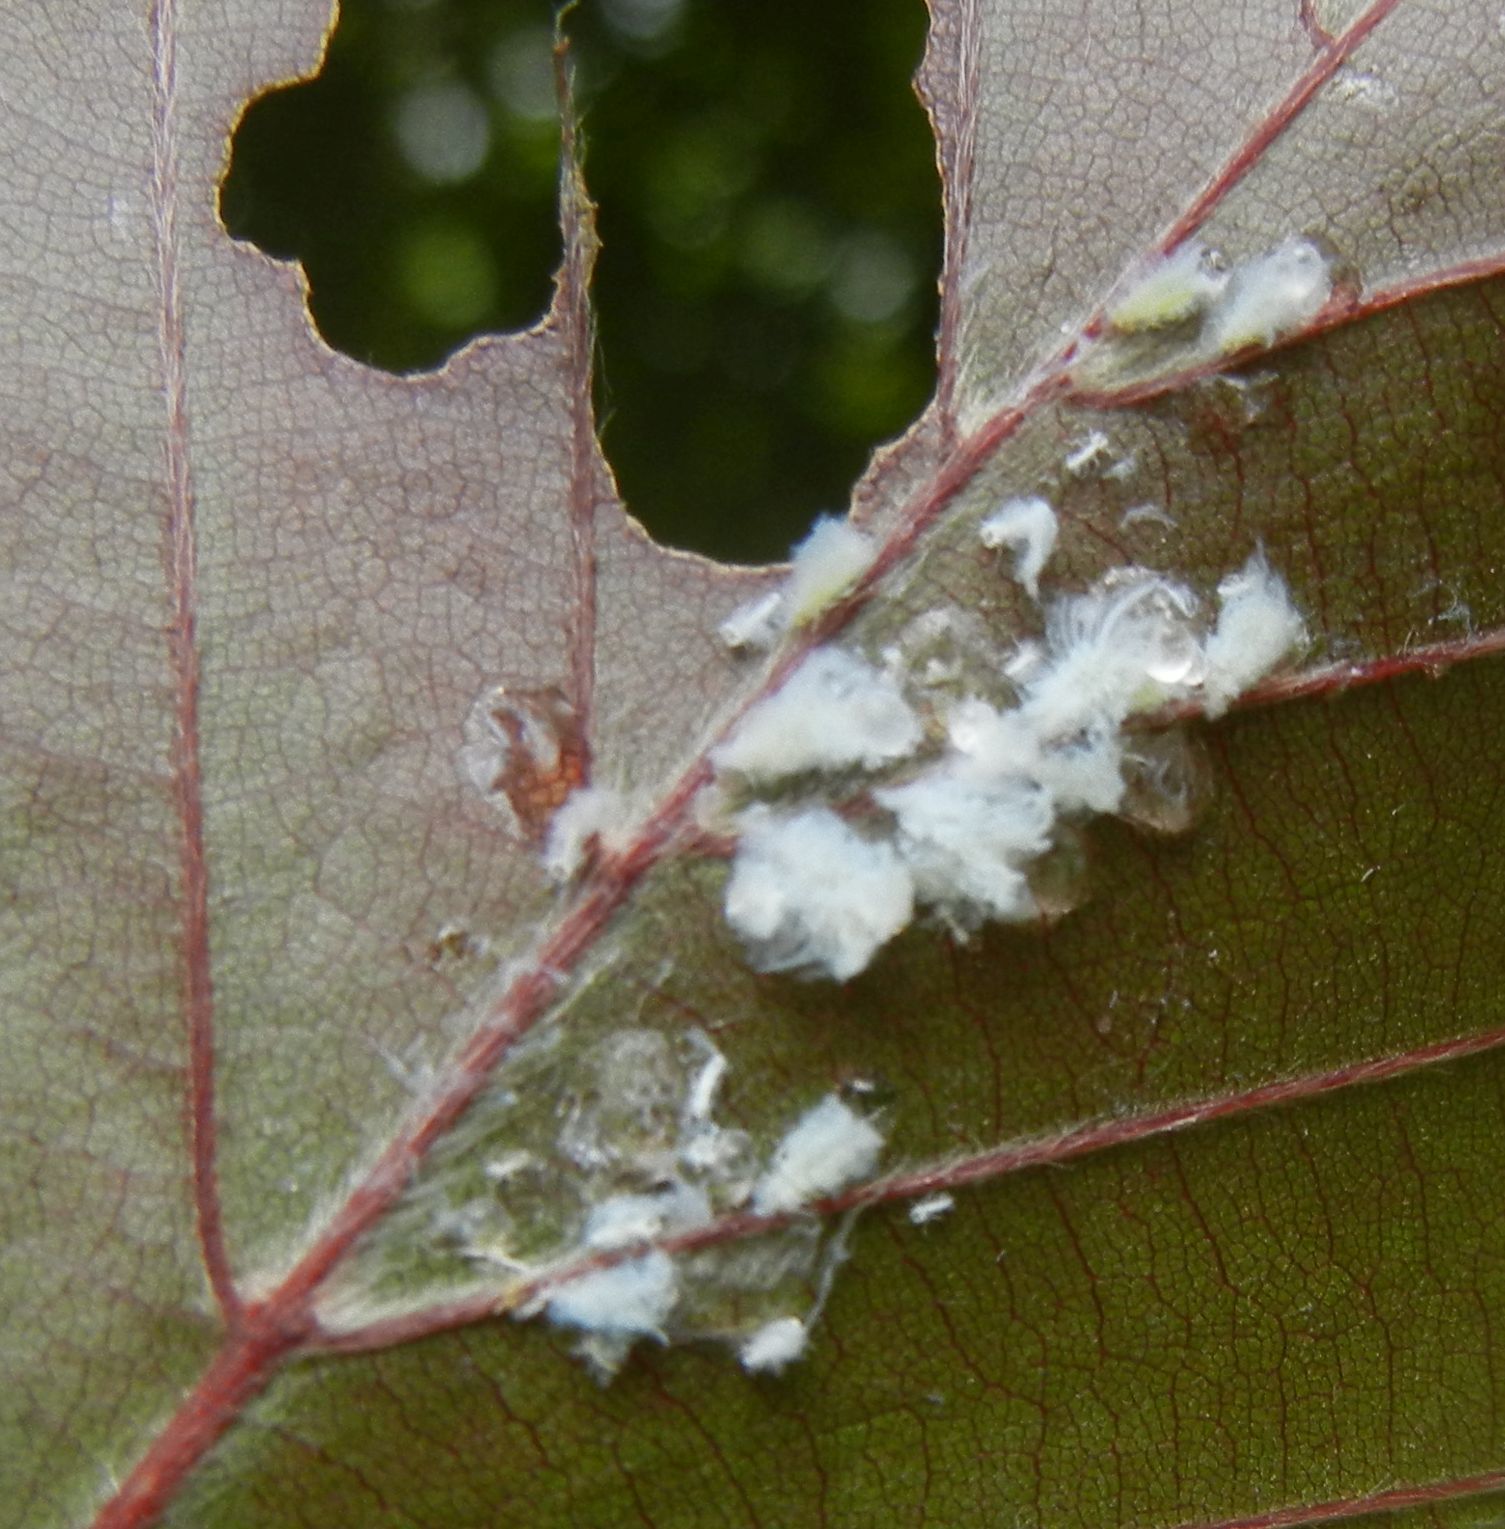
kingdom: Animalia
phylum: Arthropoda
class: Insecta
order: Hemiptera
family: Aphididae
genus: Phyllaphis
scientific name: Phyllaphis fagi
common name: Beech aphid
